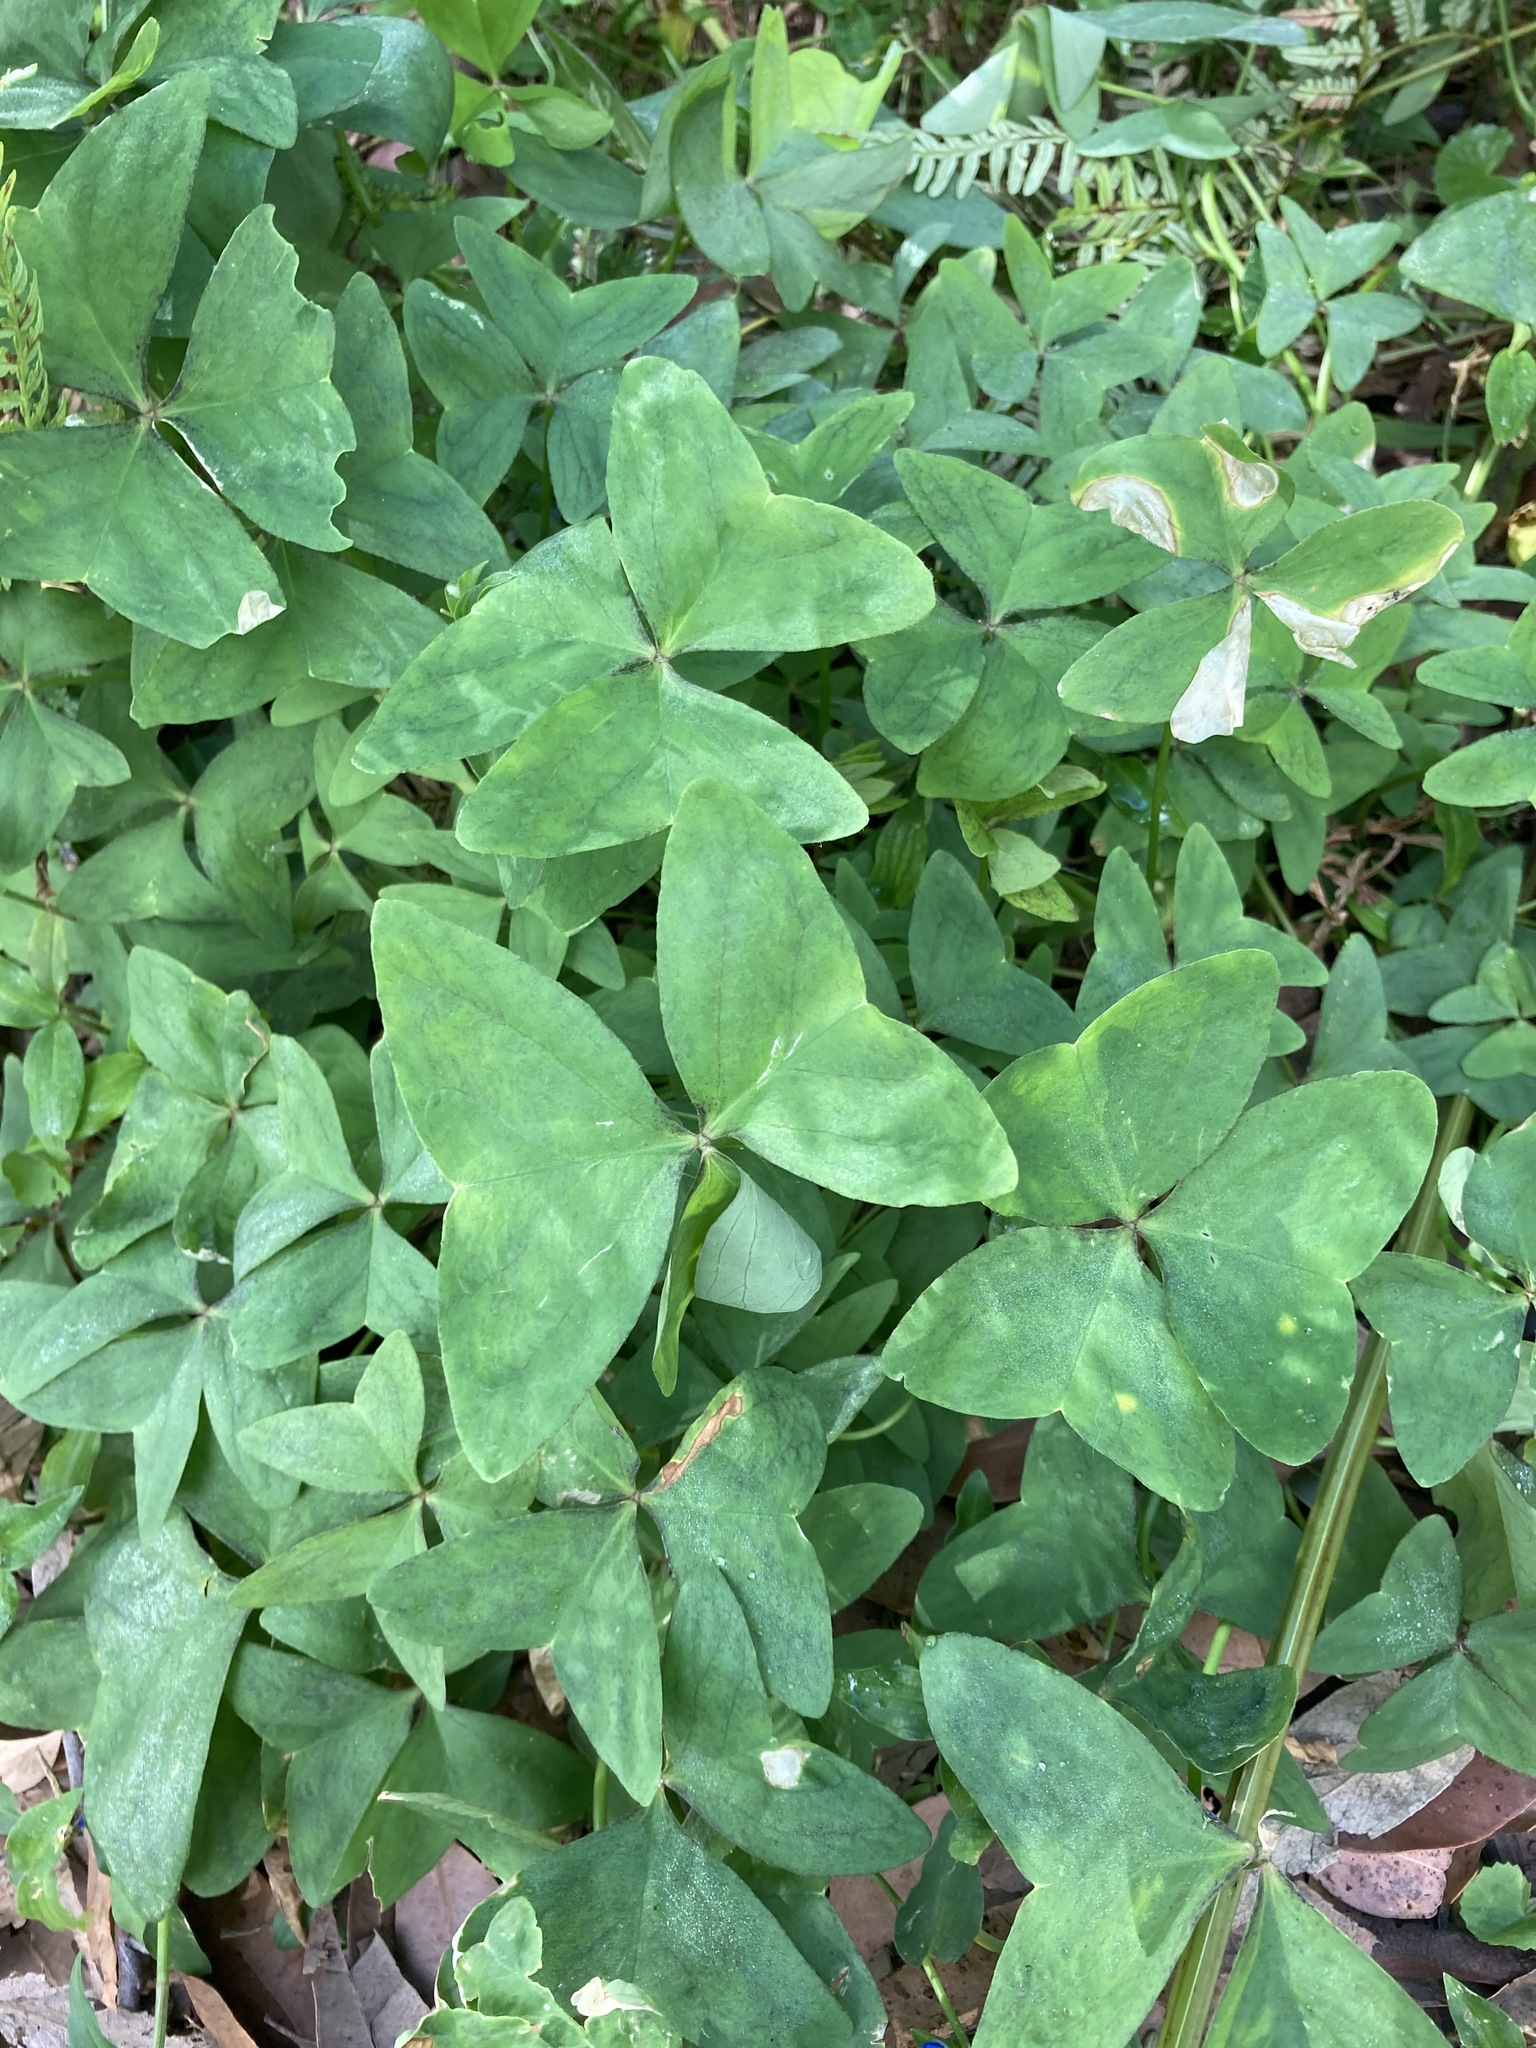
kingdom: Plantae
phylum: Tracheophyta
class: Magnoliopsida
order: Oxalidales
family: Oxalidaceae
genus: Oxalis
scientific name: Oxalis latifolia
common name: Garden pink-sorrel
